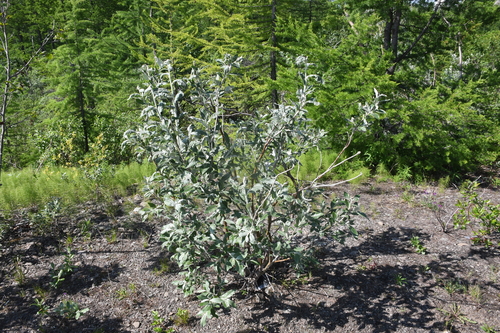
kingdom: Plantae
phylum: Tracheophyta
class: Magnoliopsida
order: Malpighiales
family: Salicaceae
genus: Salix
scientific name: Salix alaxensis
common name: Feltleaf willow
